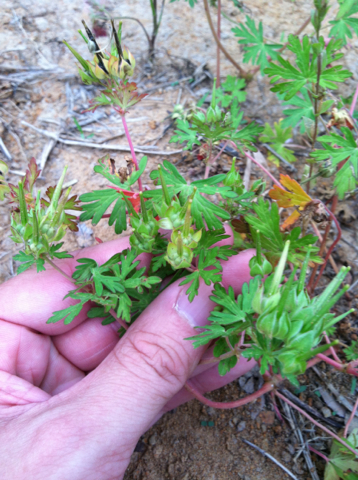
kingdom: Plantae
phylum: Tracheophyta
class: Magnoliopsida
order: Geraniales
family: Geraniaceae
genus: Geranium
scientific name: Geranium carolinianum
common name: Carolina crane's-bill
